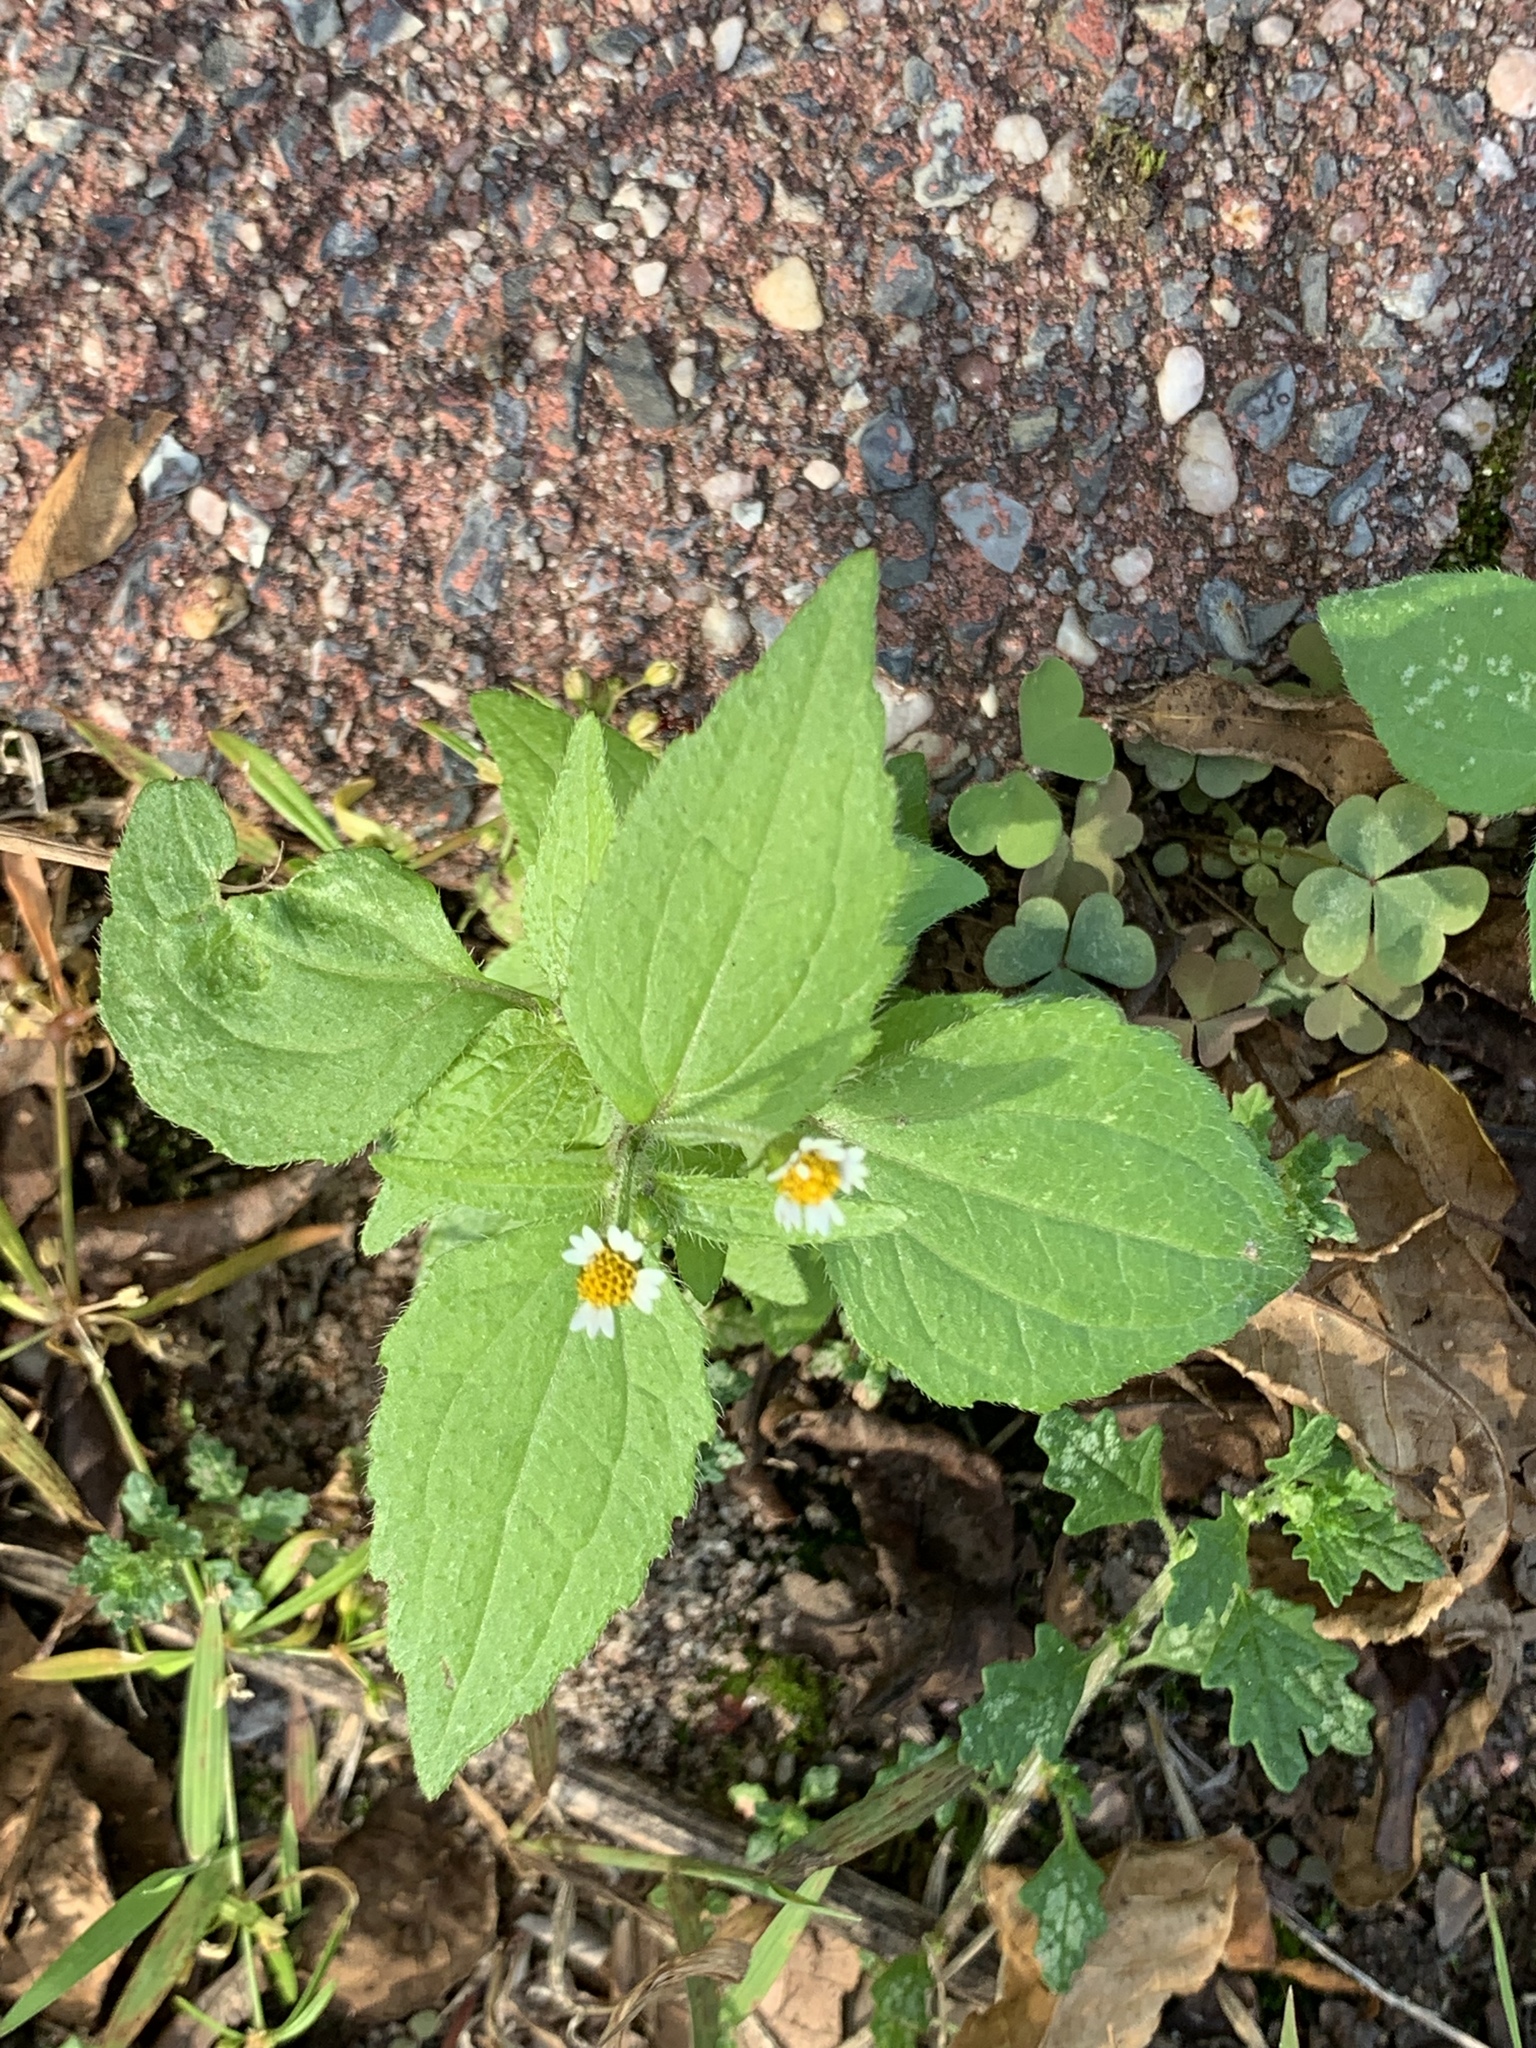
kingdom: Plantae
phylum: Tracheophyta
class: Magnoliopsida
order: Asterales
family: Asteraceae
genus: Galinsoga
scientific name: Galinsoga quadriradiata
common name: Shaggy soldier
